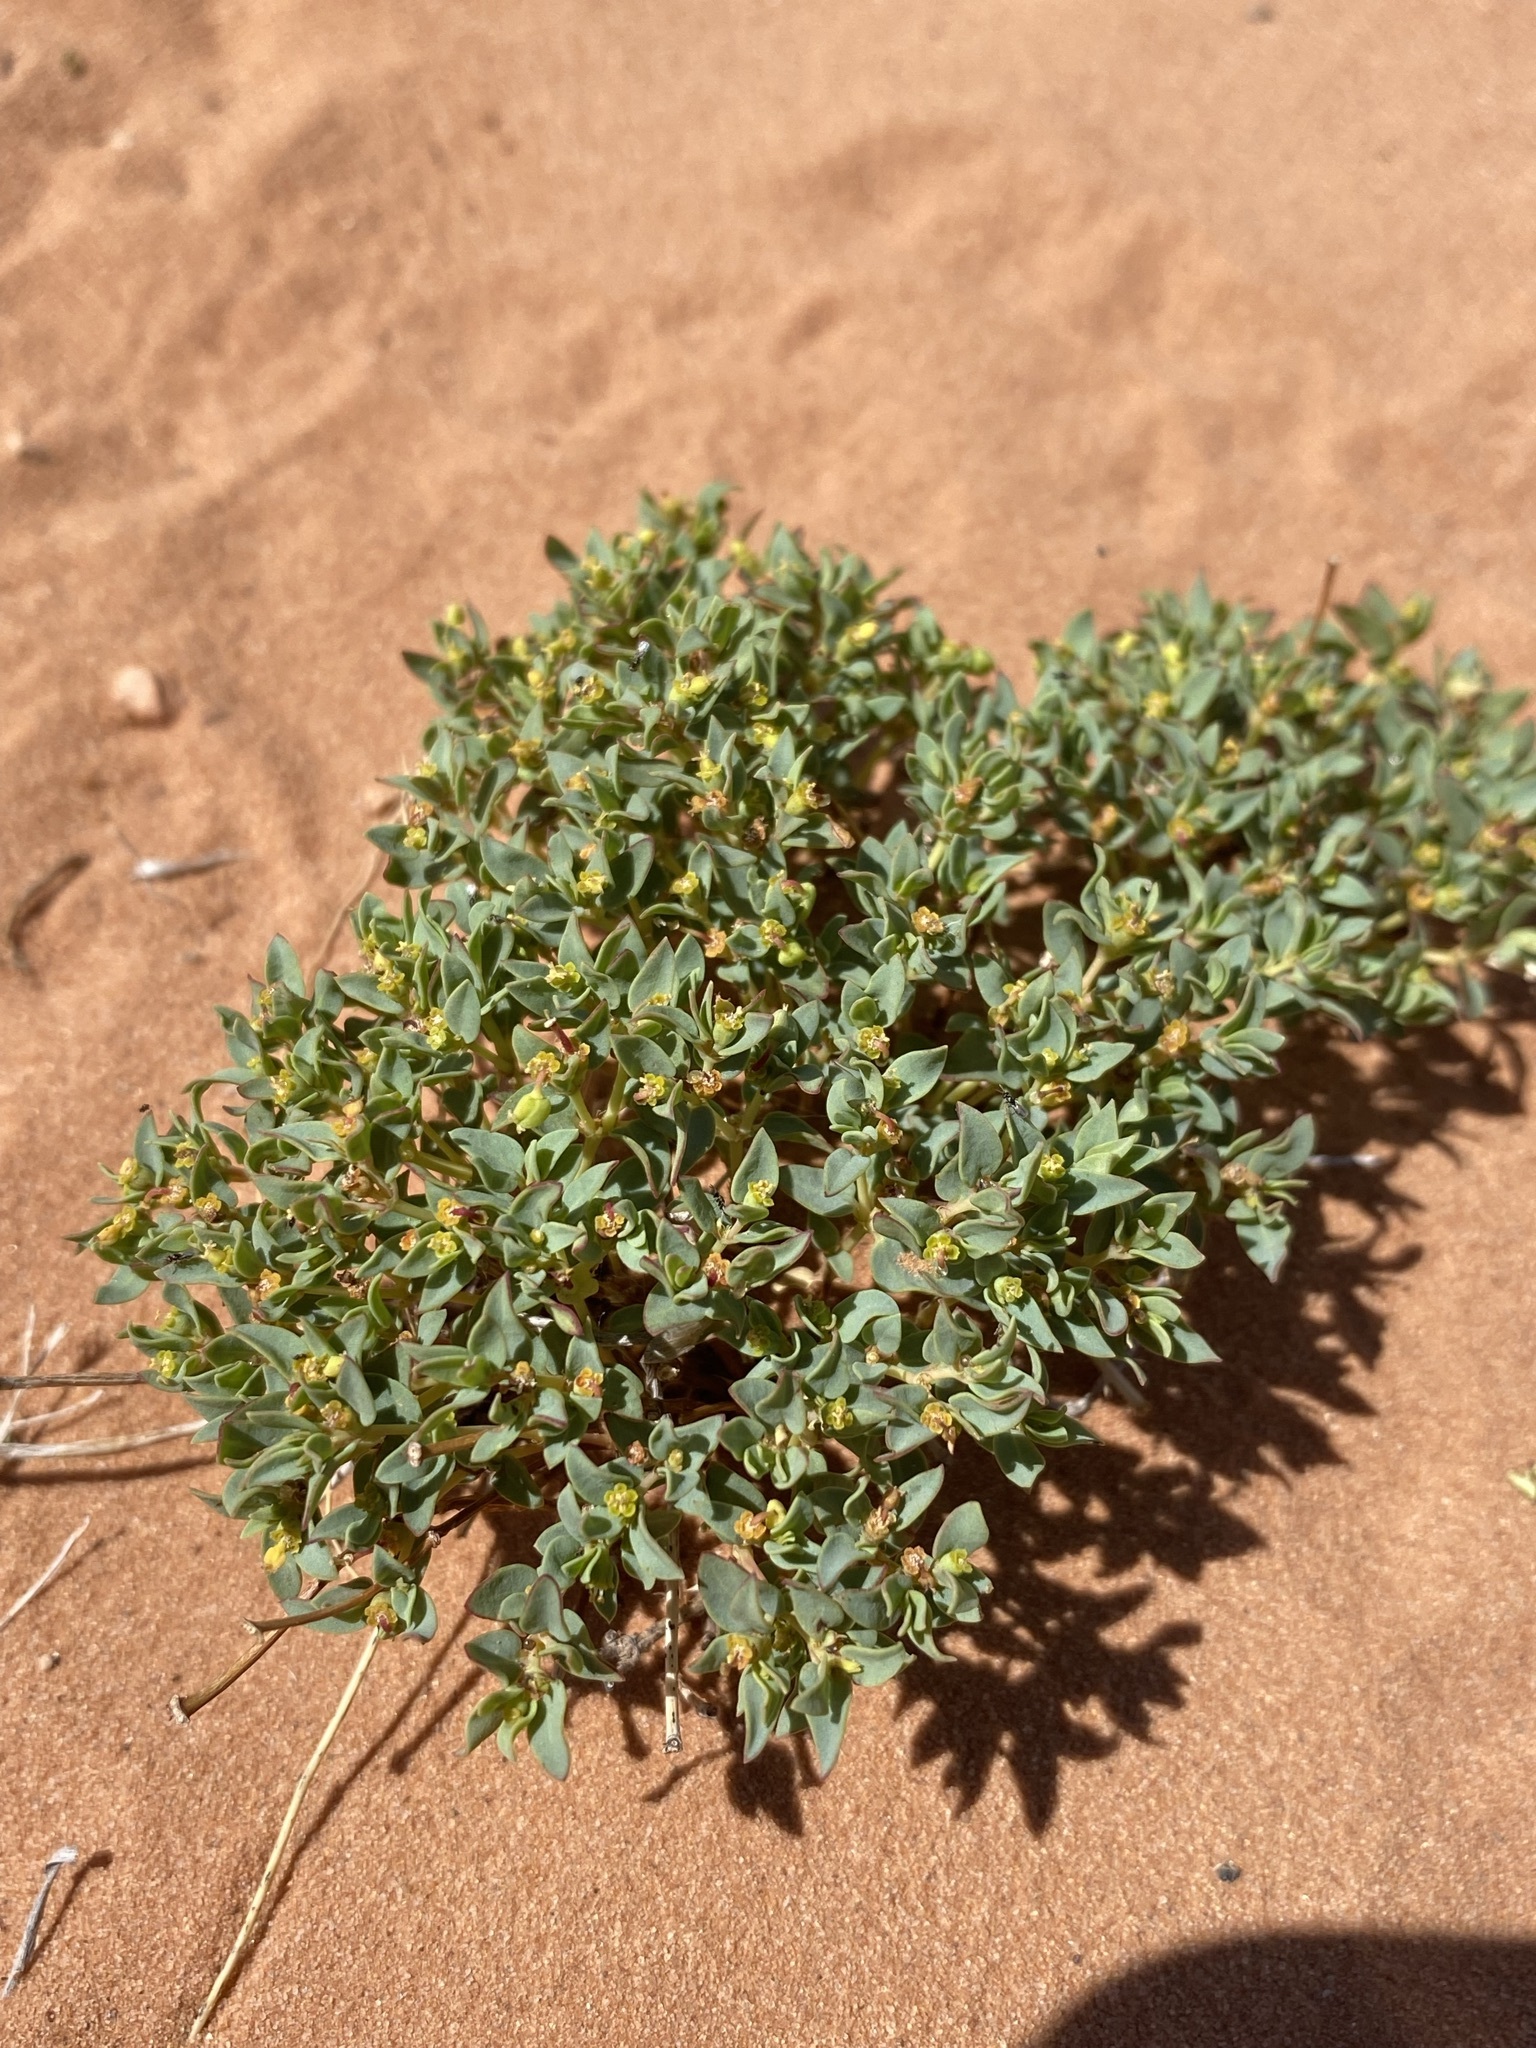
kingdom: Plantae
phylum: Tracheophyta
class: Magnoliopsida
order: Malpighiales
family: Euphorbiaceae
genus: Euphorbia
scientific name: Euphorbia fendleri
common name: Fendler's euphorbia
